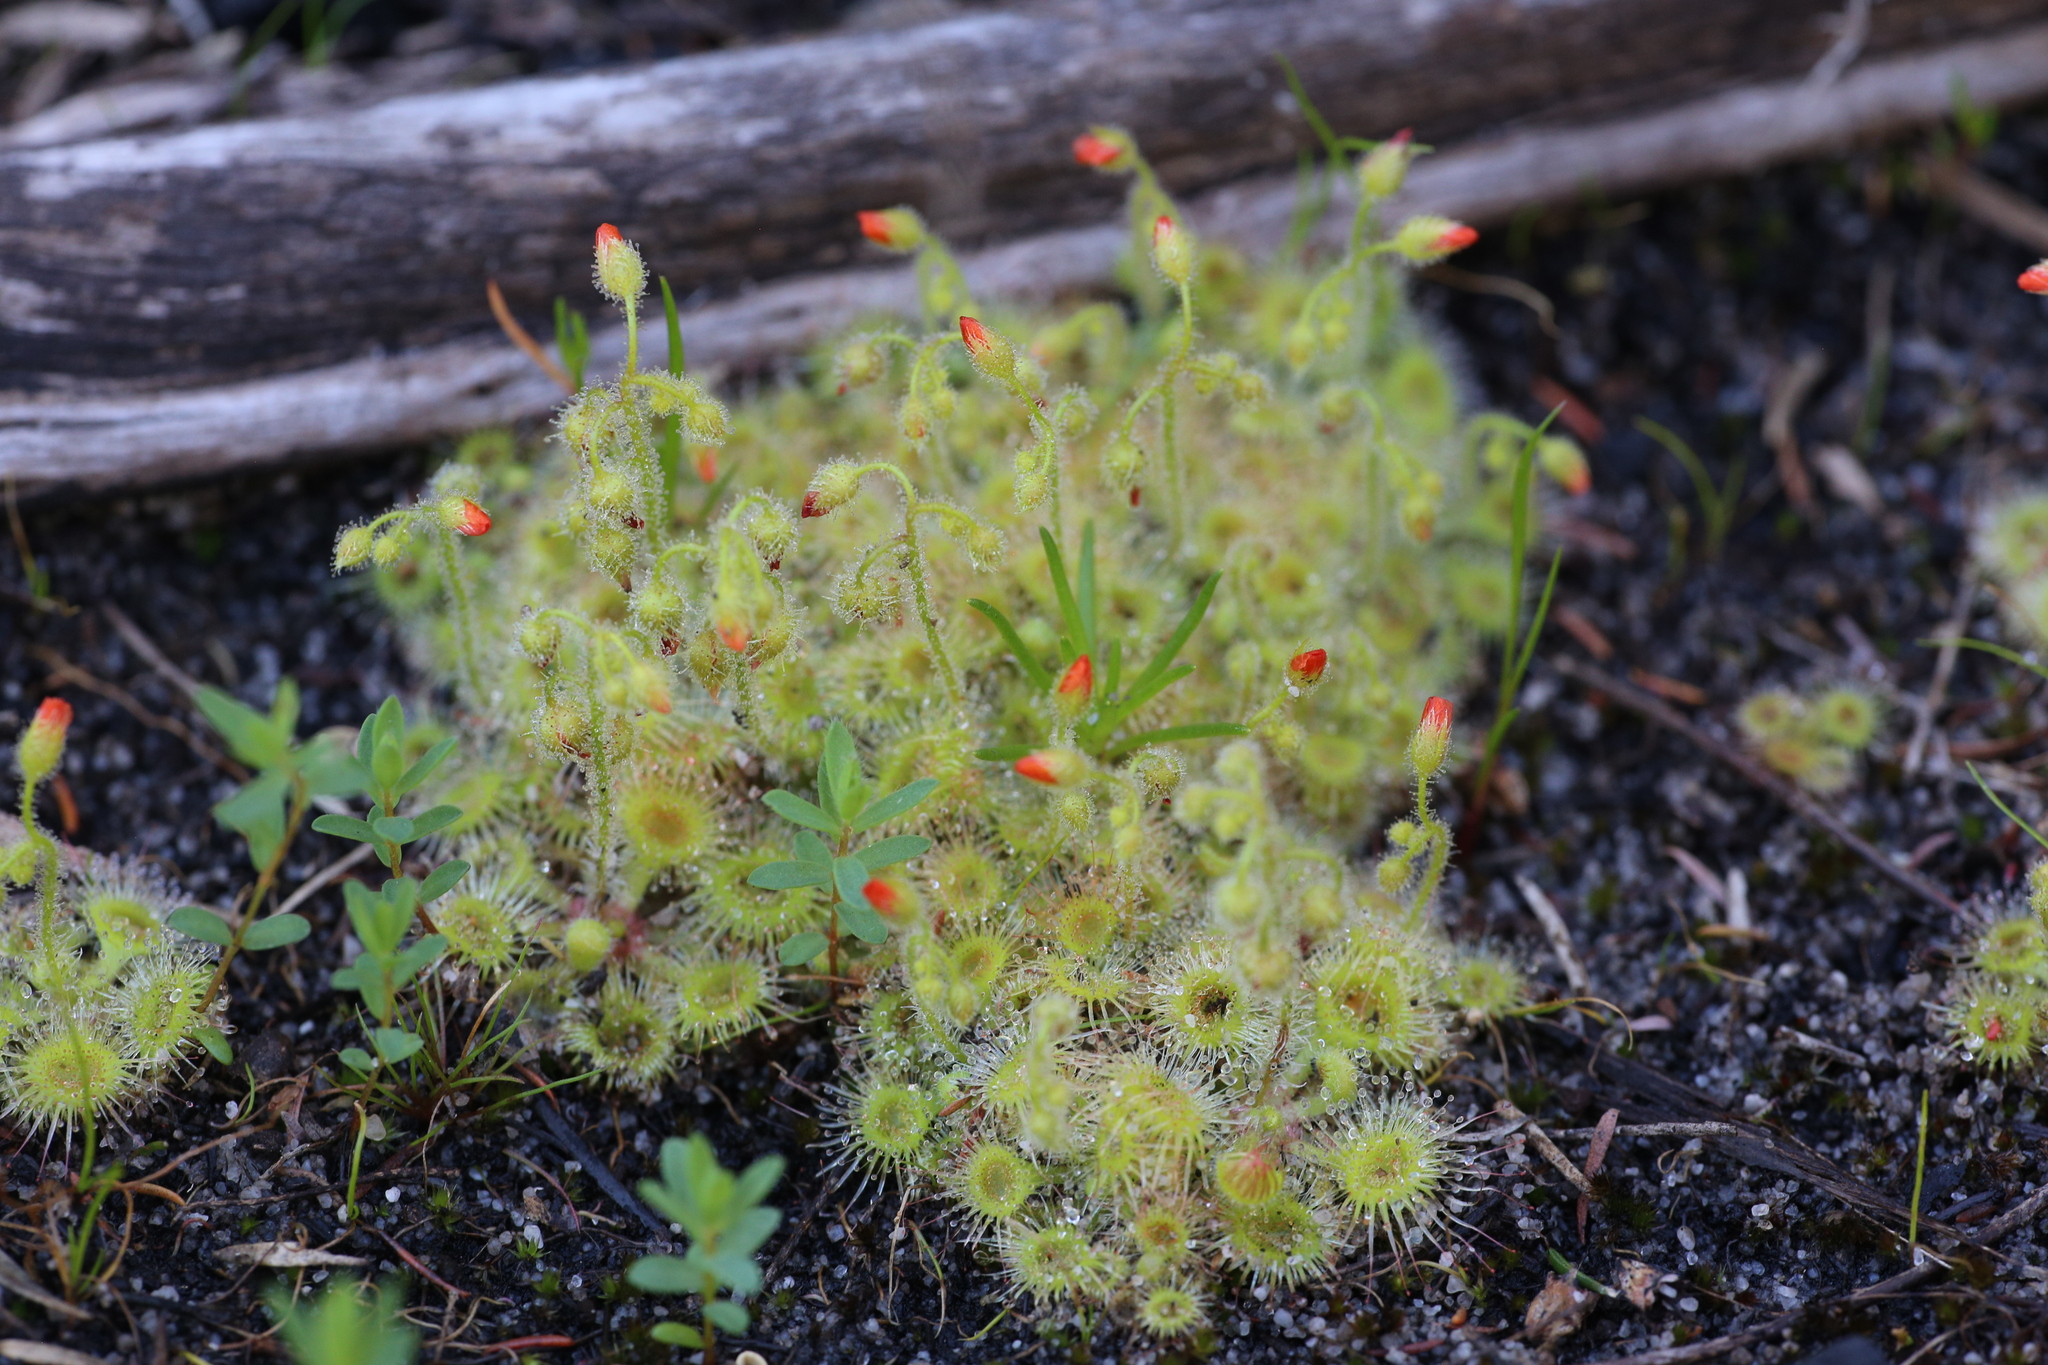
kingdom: Plantae
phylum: Tracheophyta
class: Magnoliopsida
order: Caryophyllales
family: Droseraceae
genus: Drosera
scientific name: Drosera glanduligera
